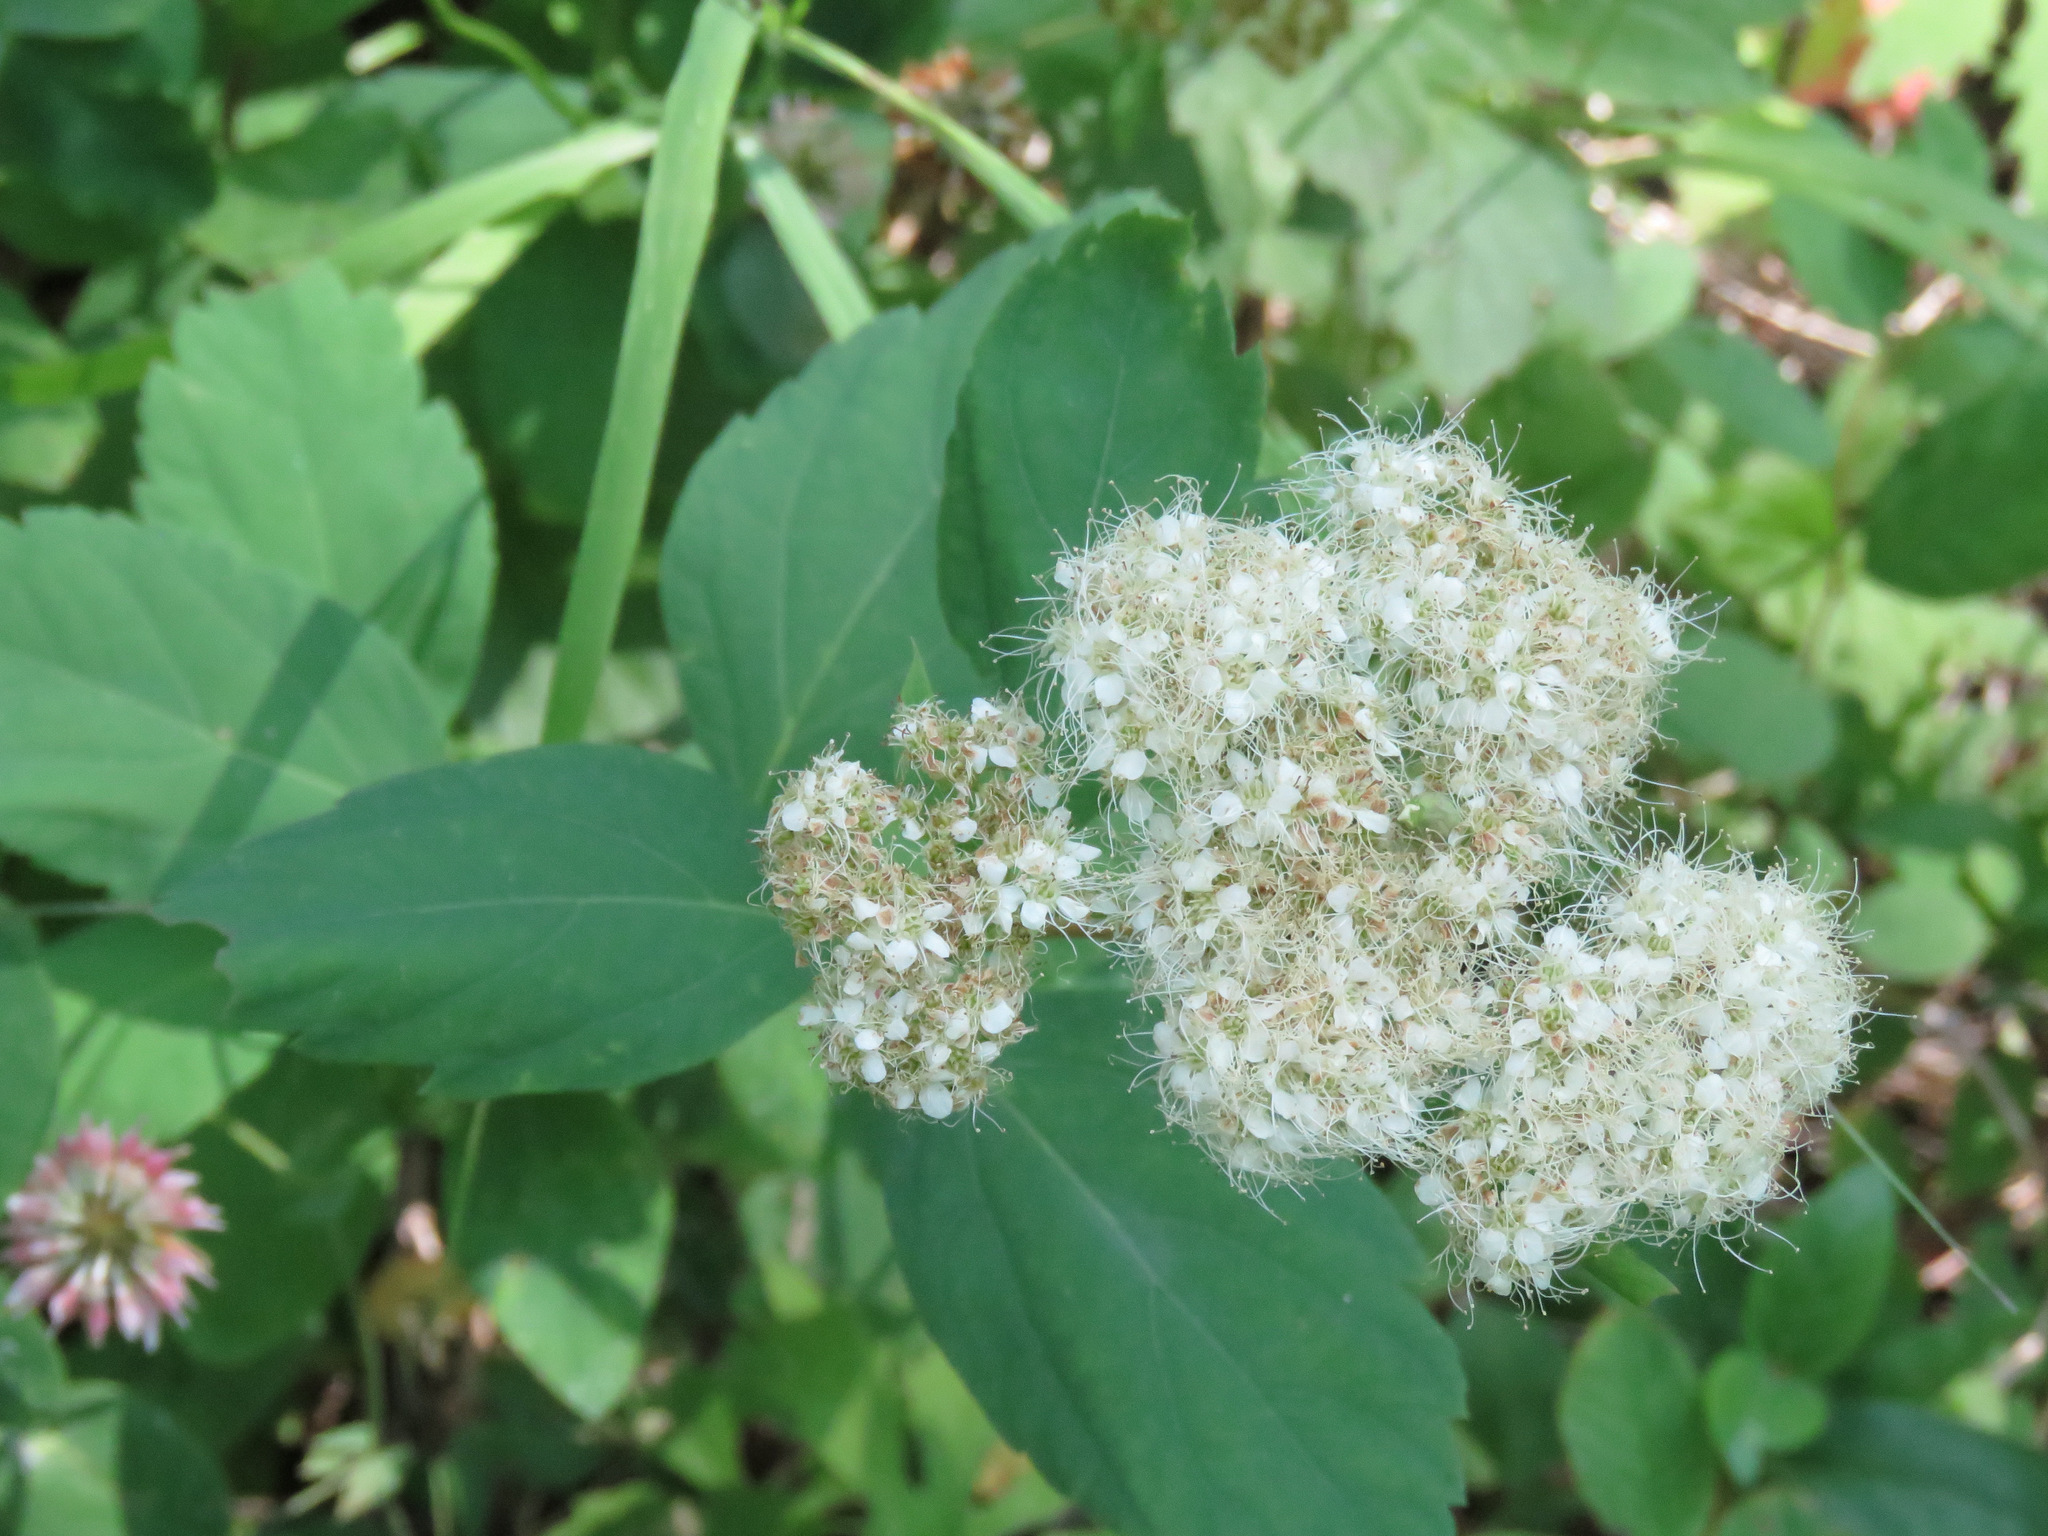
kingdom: Plantae
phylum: Tracheophyta
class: Magnoliopsida
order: Rosales
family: Rosaceae
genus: Spiraea
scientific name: Spiraea lucida
